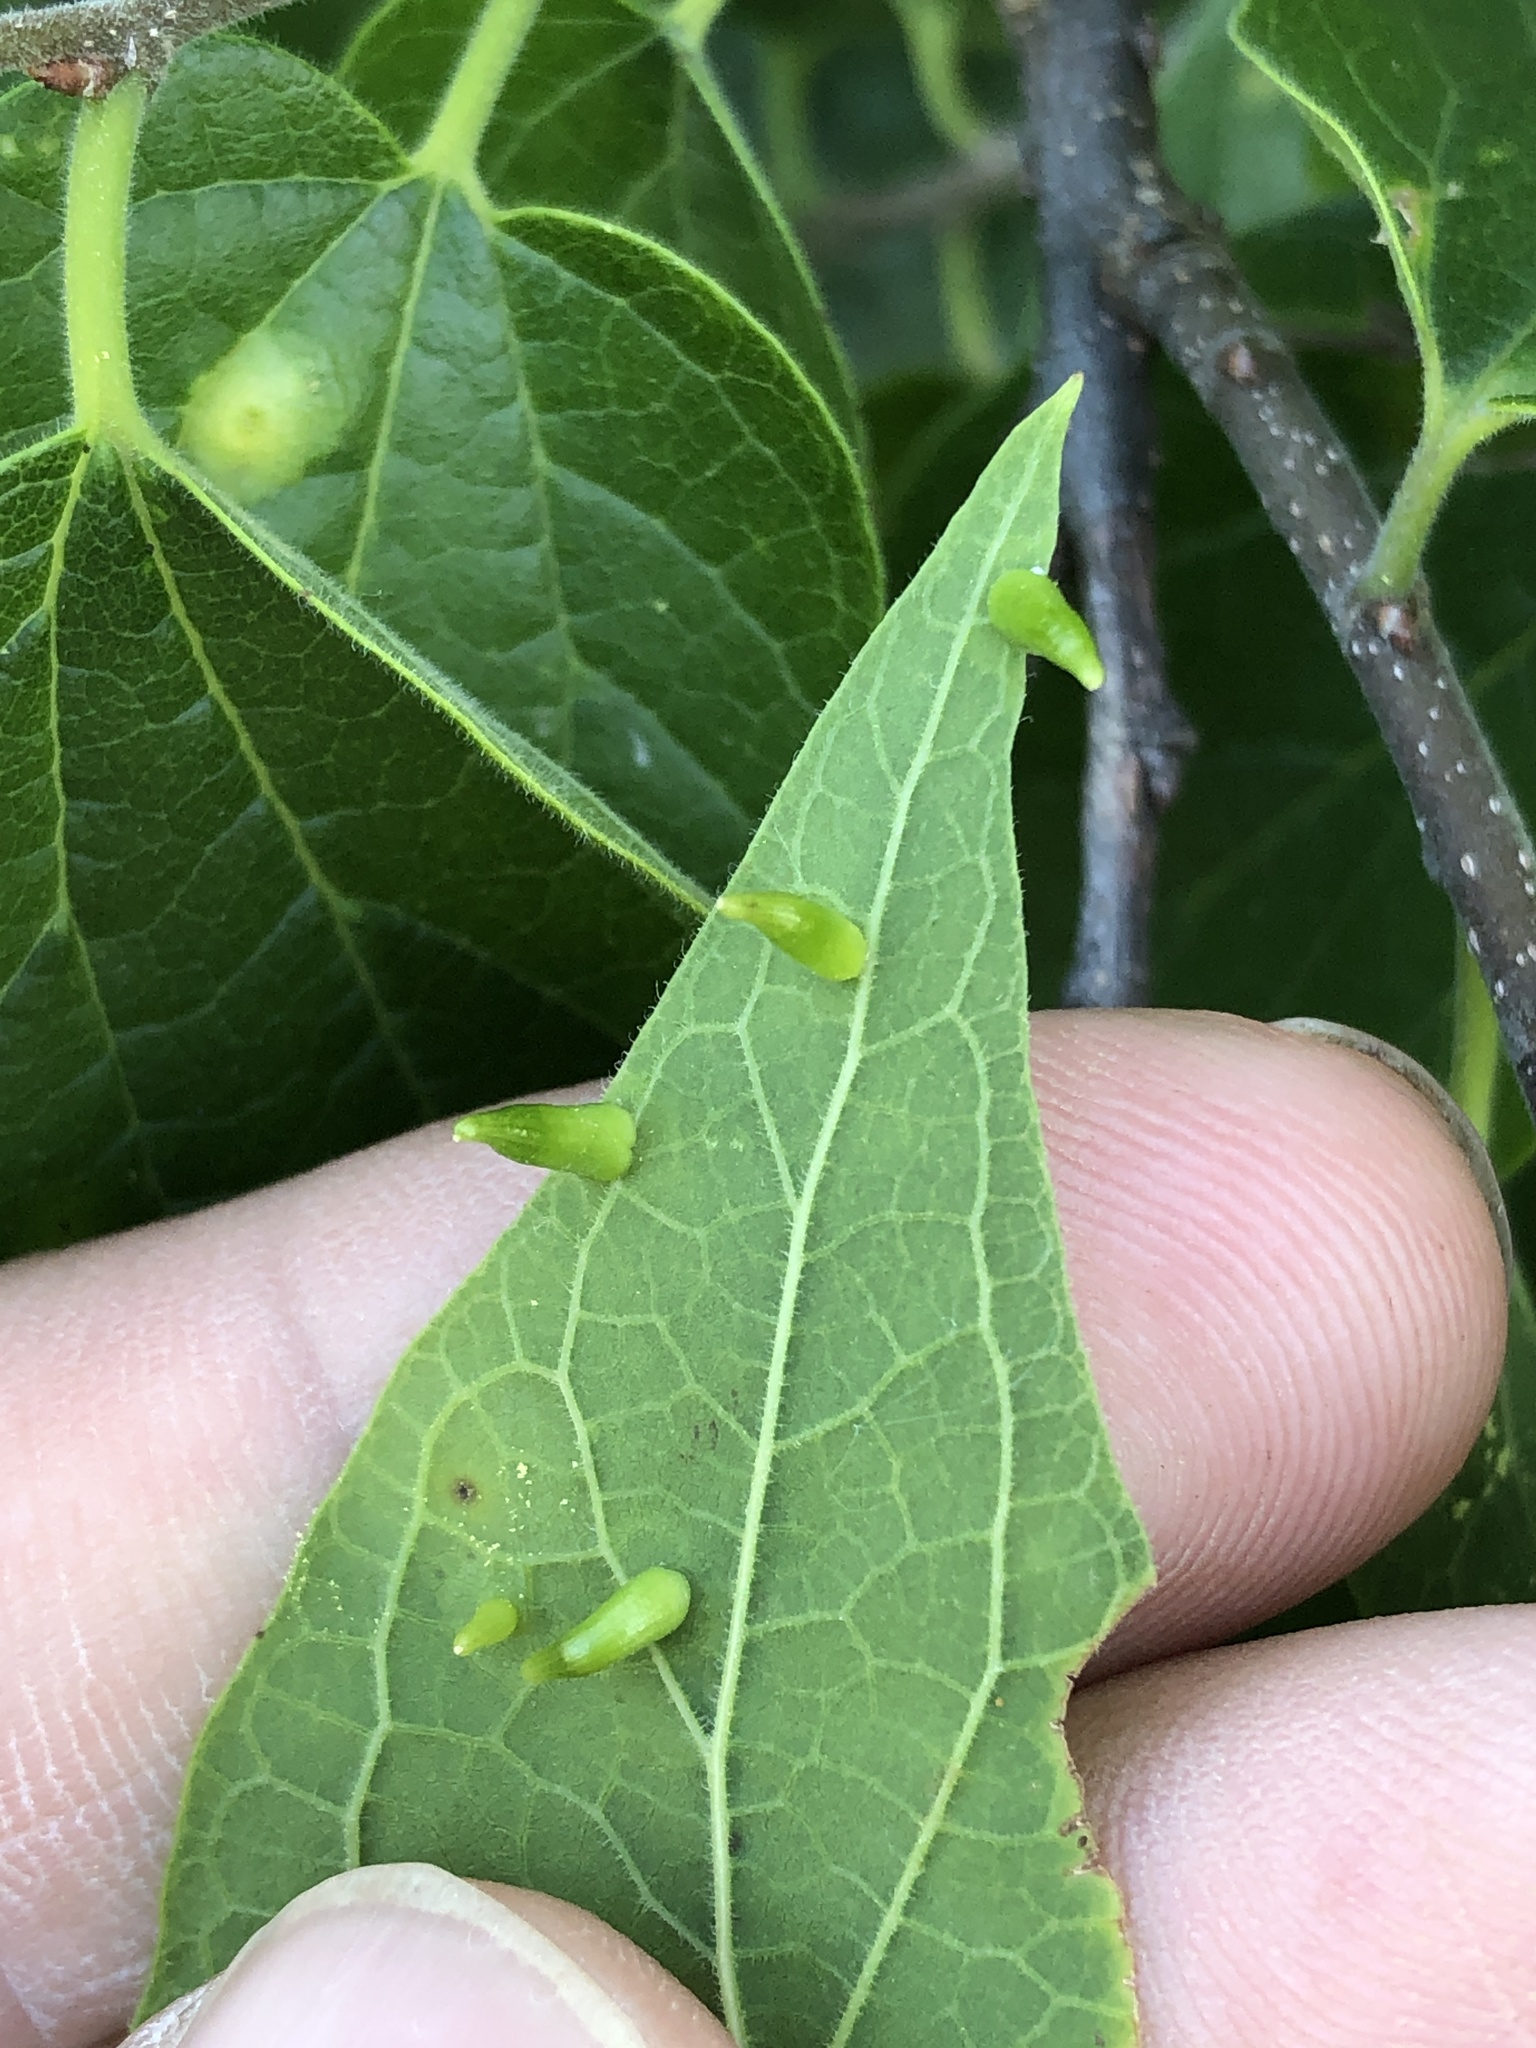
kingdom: Animalia
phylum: Arthropoda
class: Insecta
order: Diptera
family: Cecidomyiidae
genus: Celticecis
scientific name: Celticecis subulata
